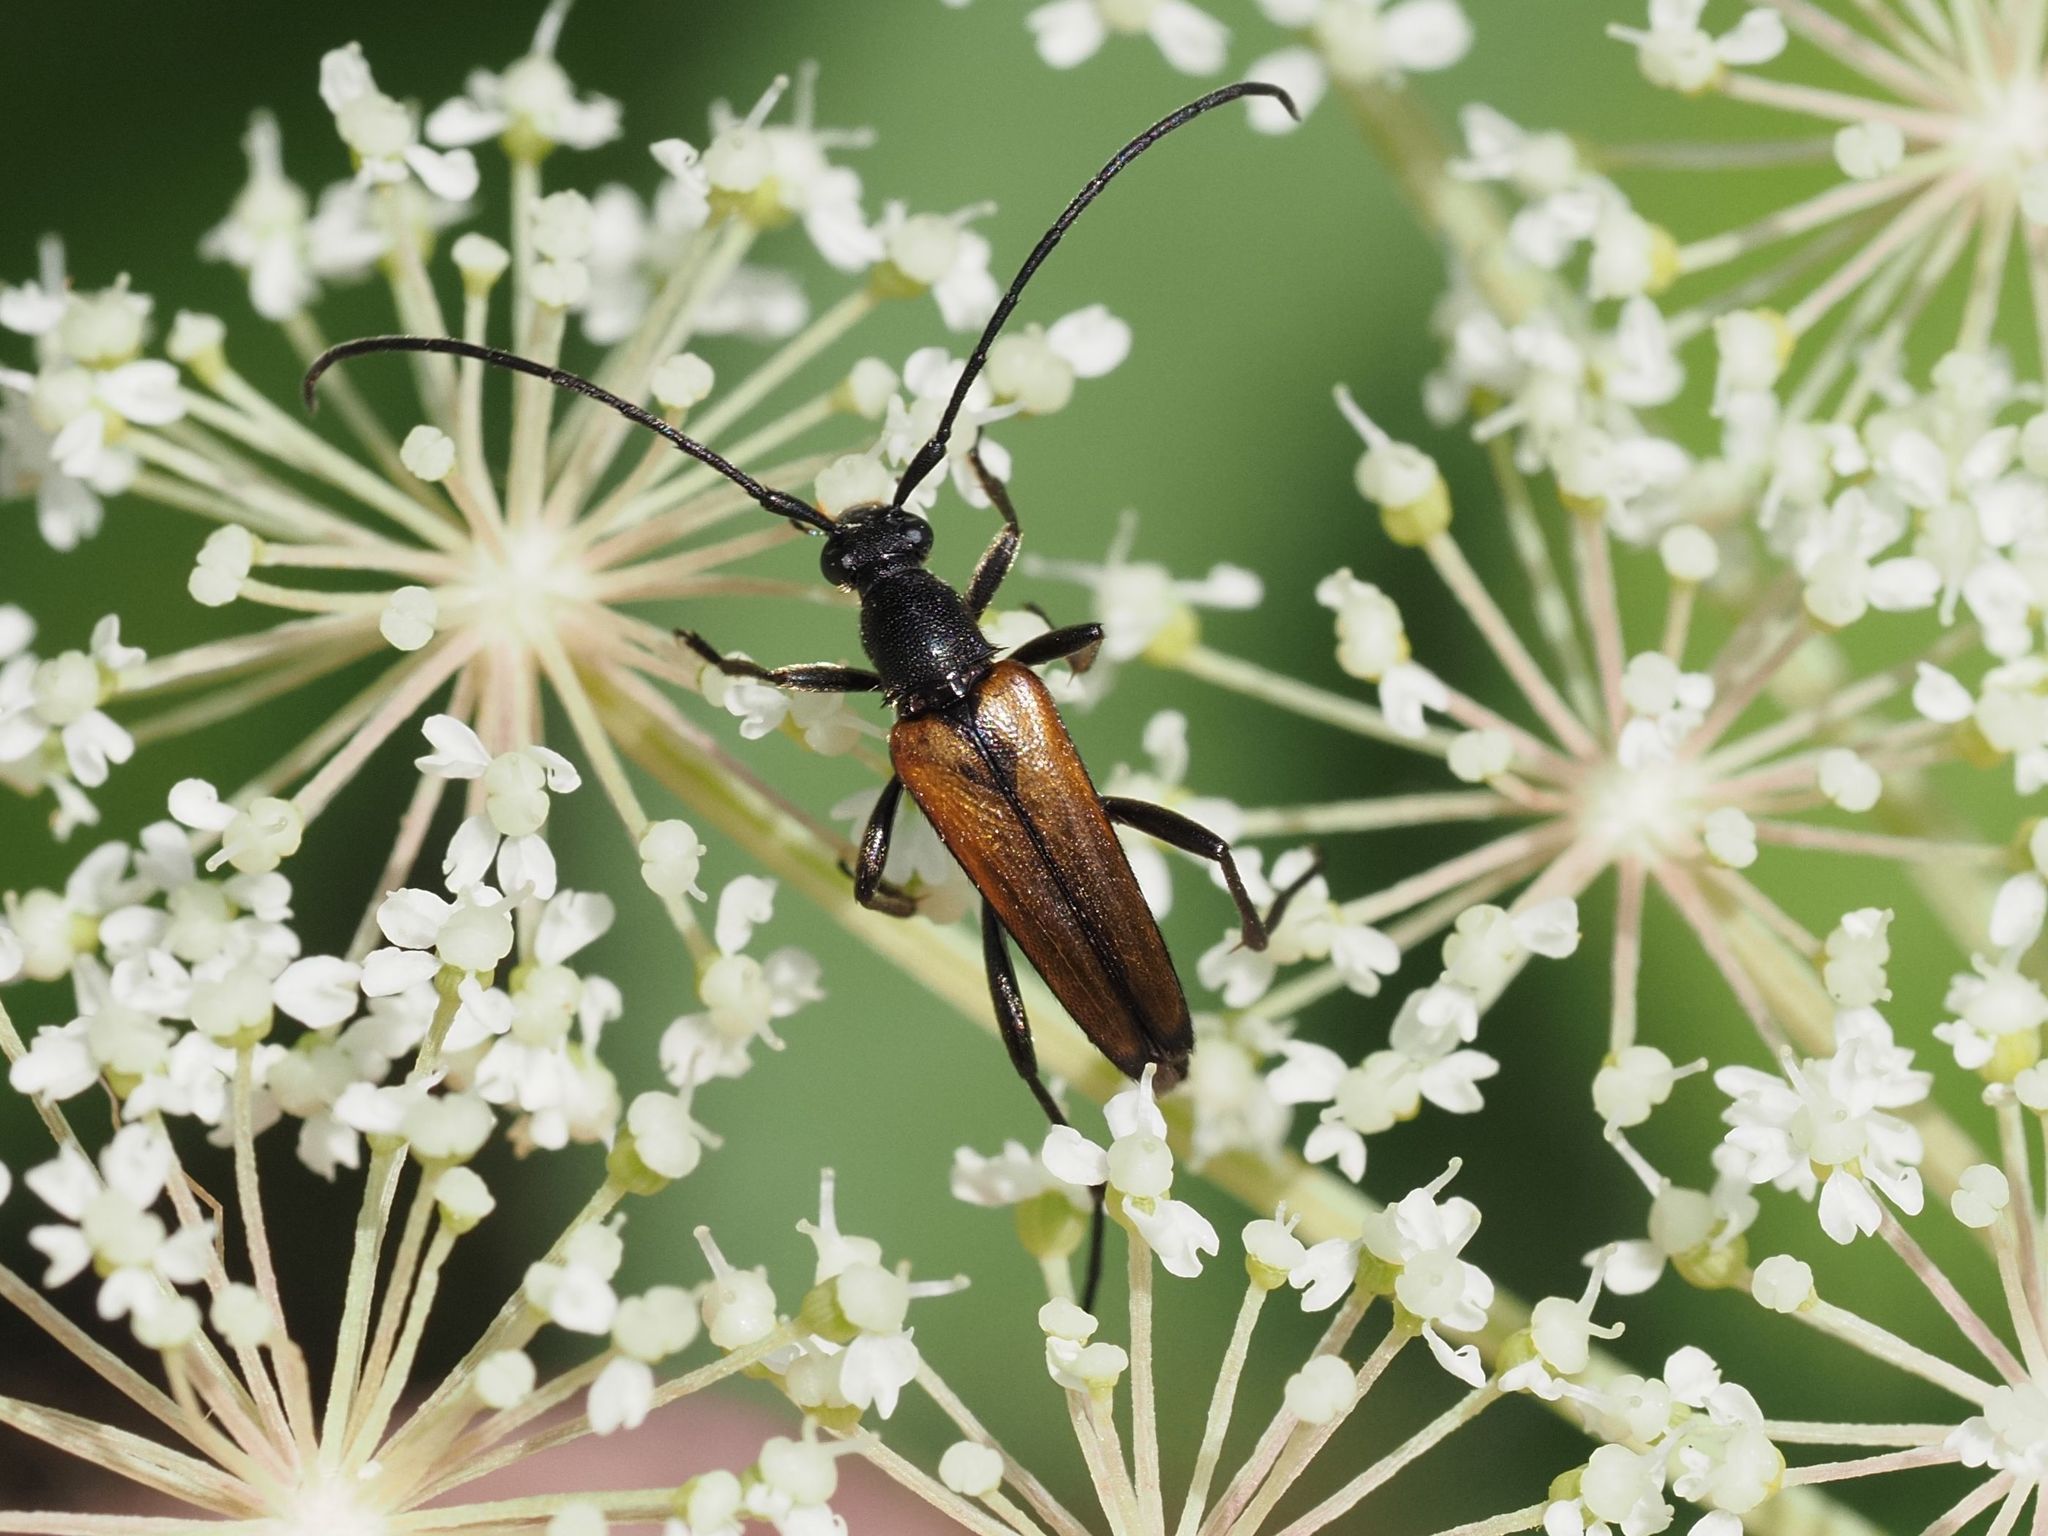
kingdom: Animalia
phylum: Arthropoda
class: Insecta
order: Coleoptera
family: Cerambycidae
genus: Stenurella
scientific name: Stenurella melanura
